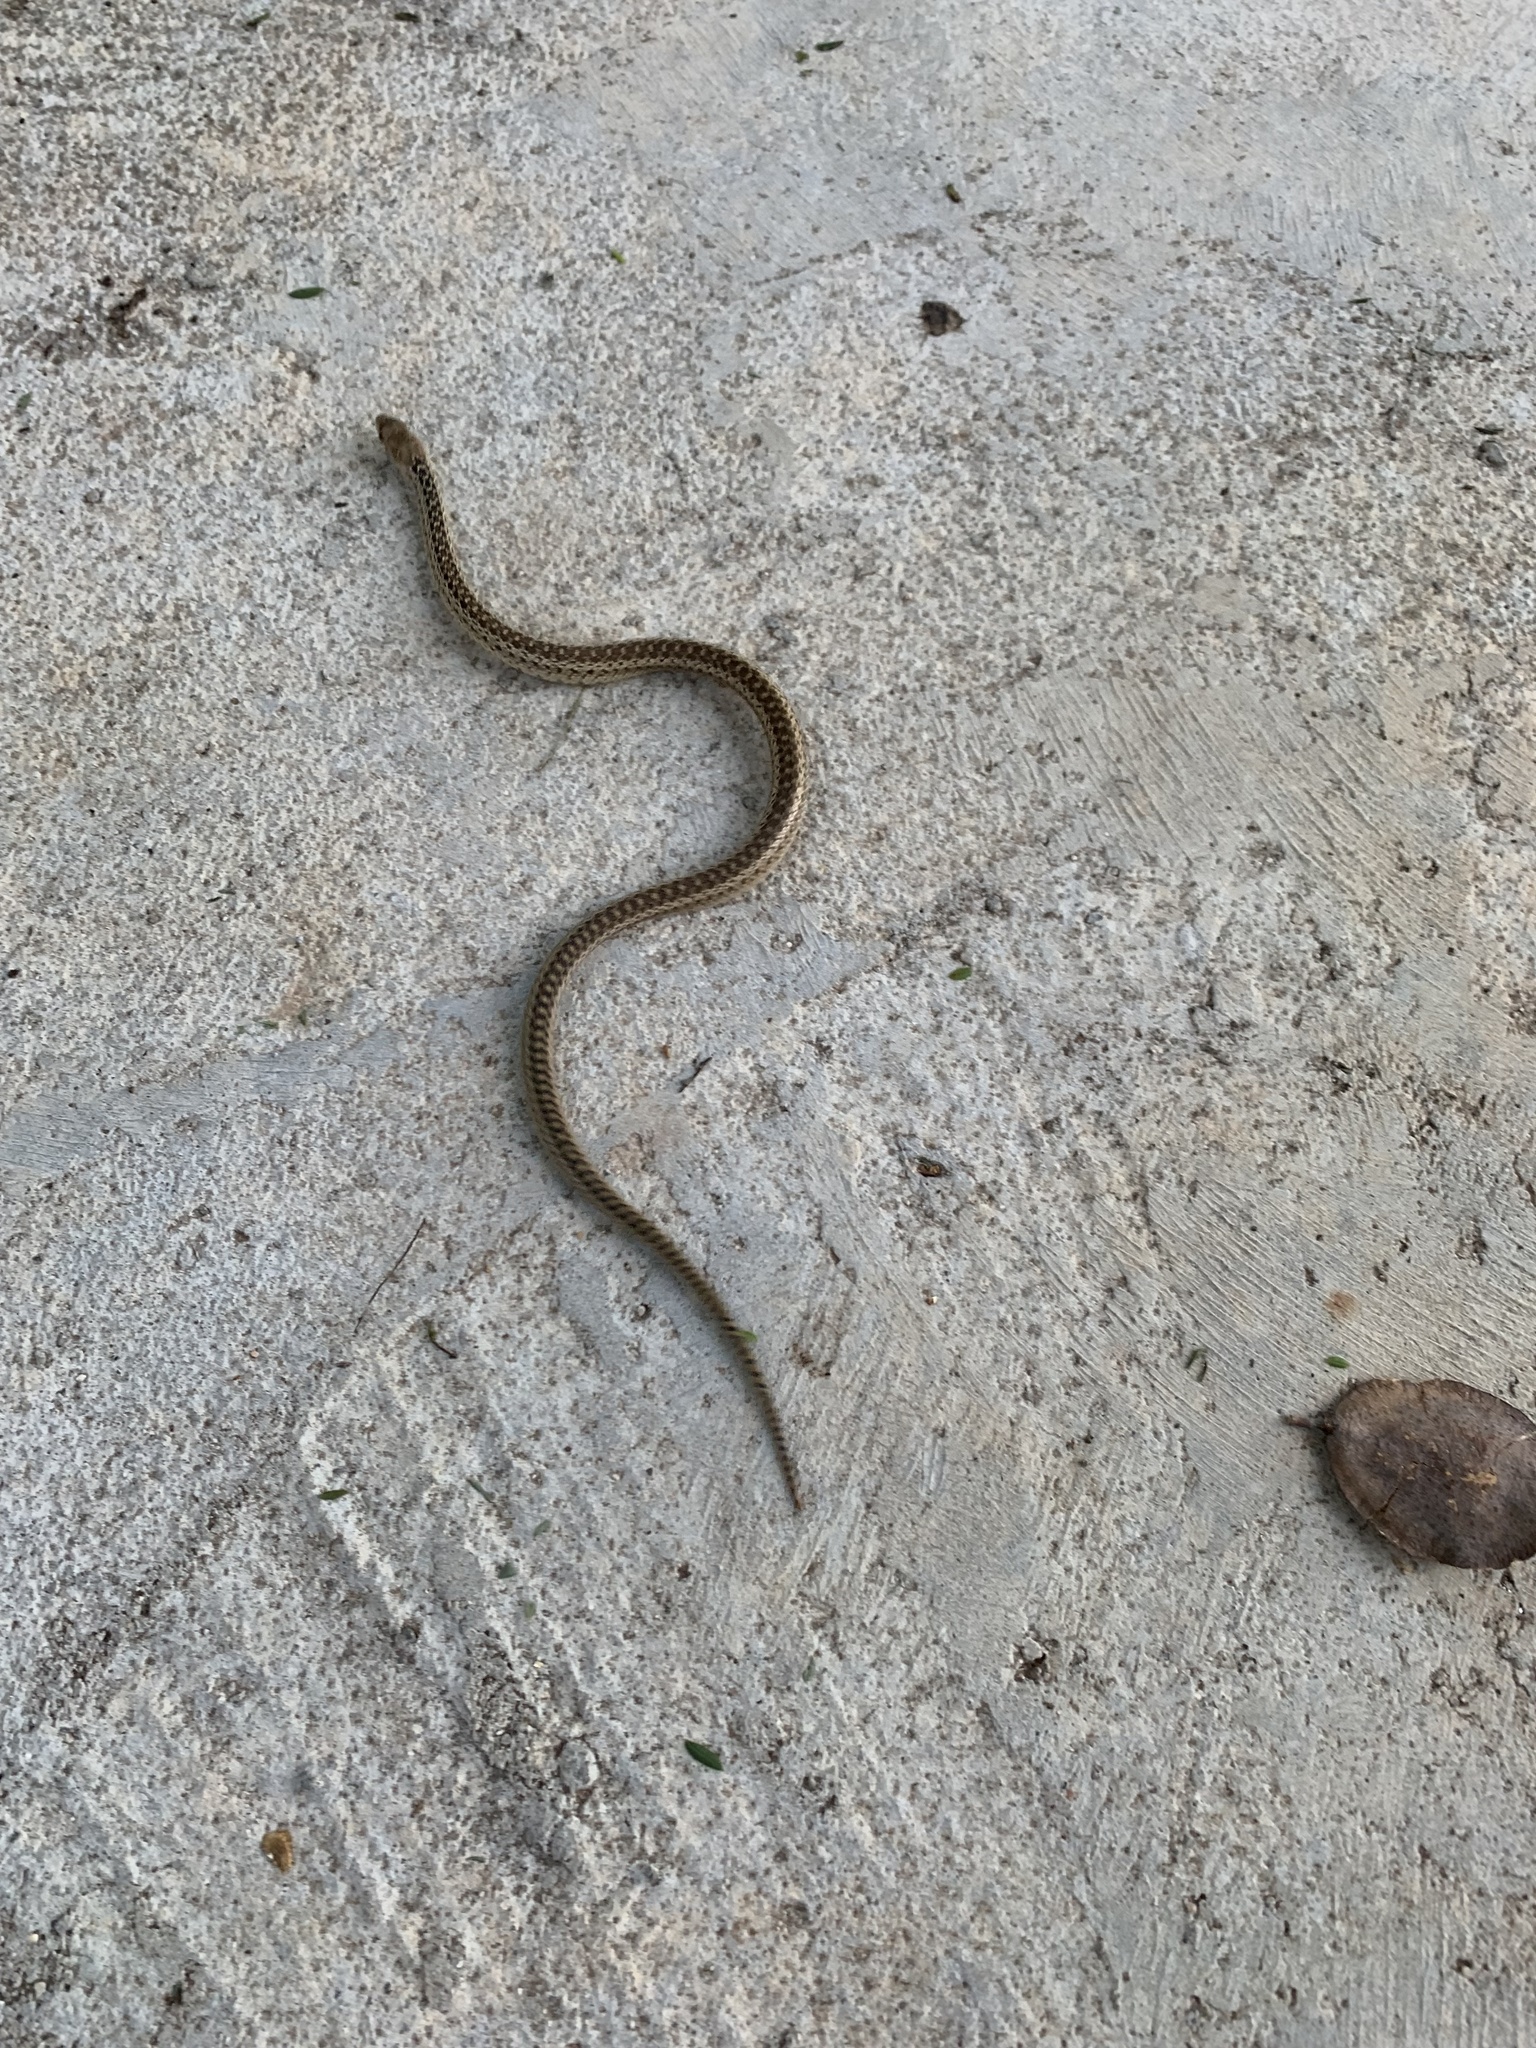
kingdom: Animalia
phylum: Chordata
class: Squamata
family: Colubridae
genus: Pituophis
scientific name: Pituophis catenifer
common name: Gopher snake
